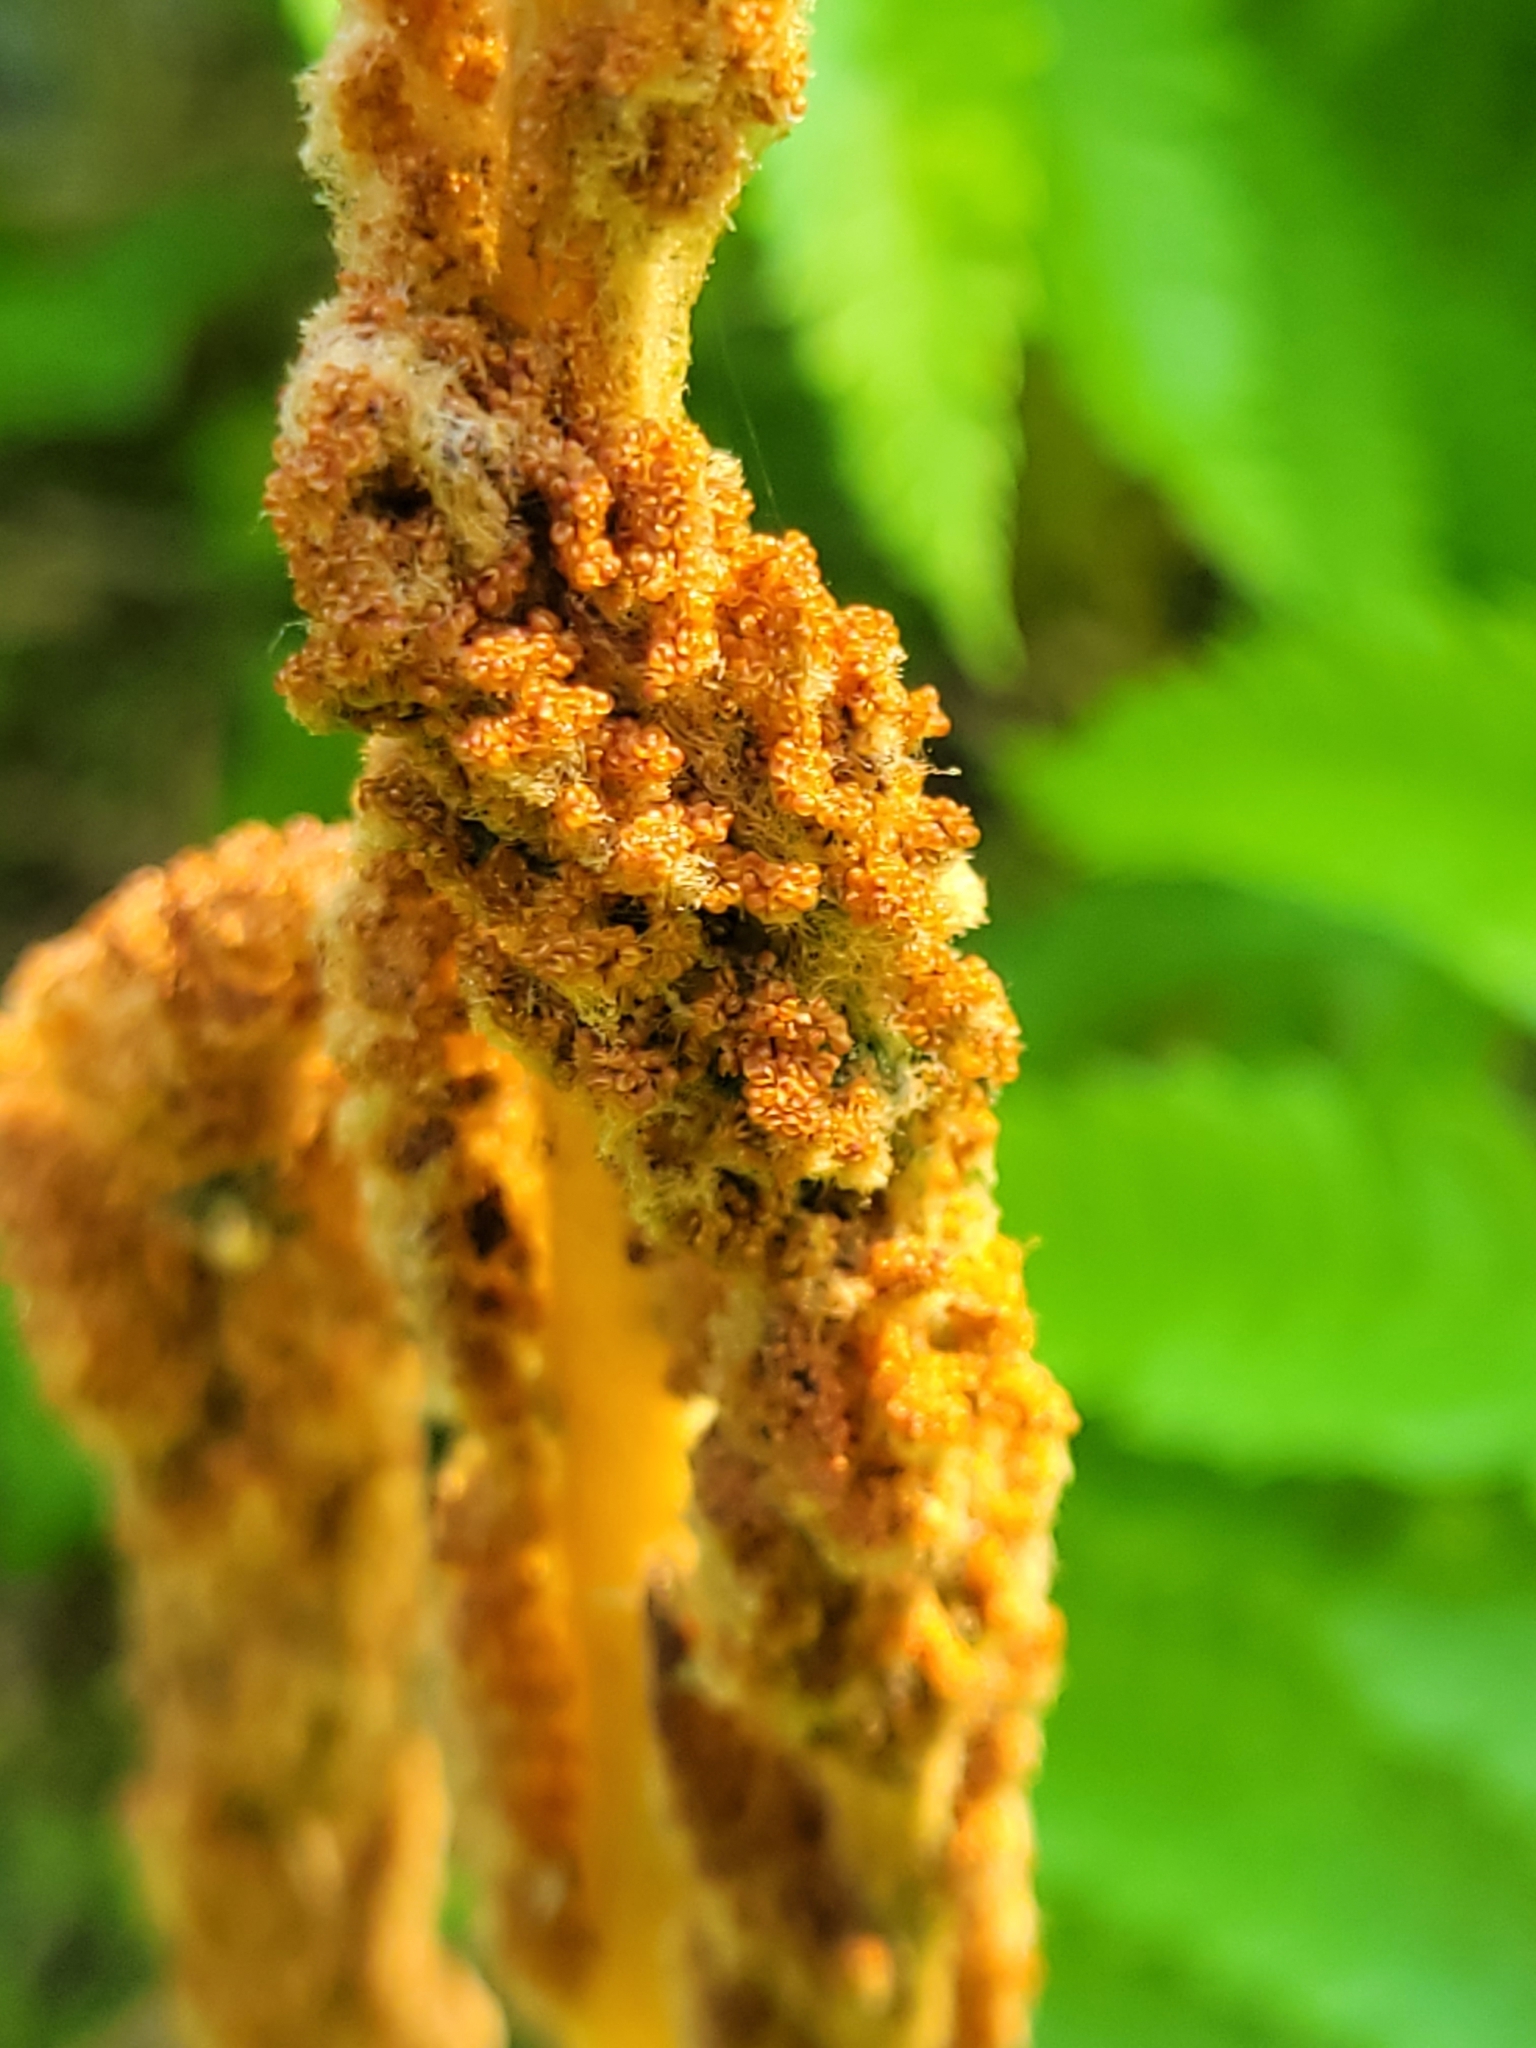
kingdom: Plantae
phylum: Tracheophyta
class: Polypodiopsida
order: Osmundales
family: Osmundaceae
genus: Osmundastrum
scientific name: Osmundastrum cinnamomeum
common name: Cinnamon fern
